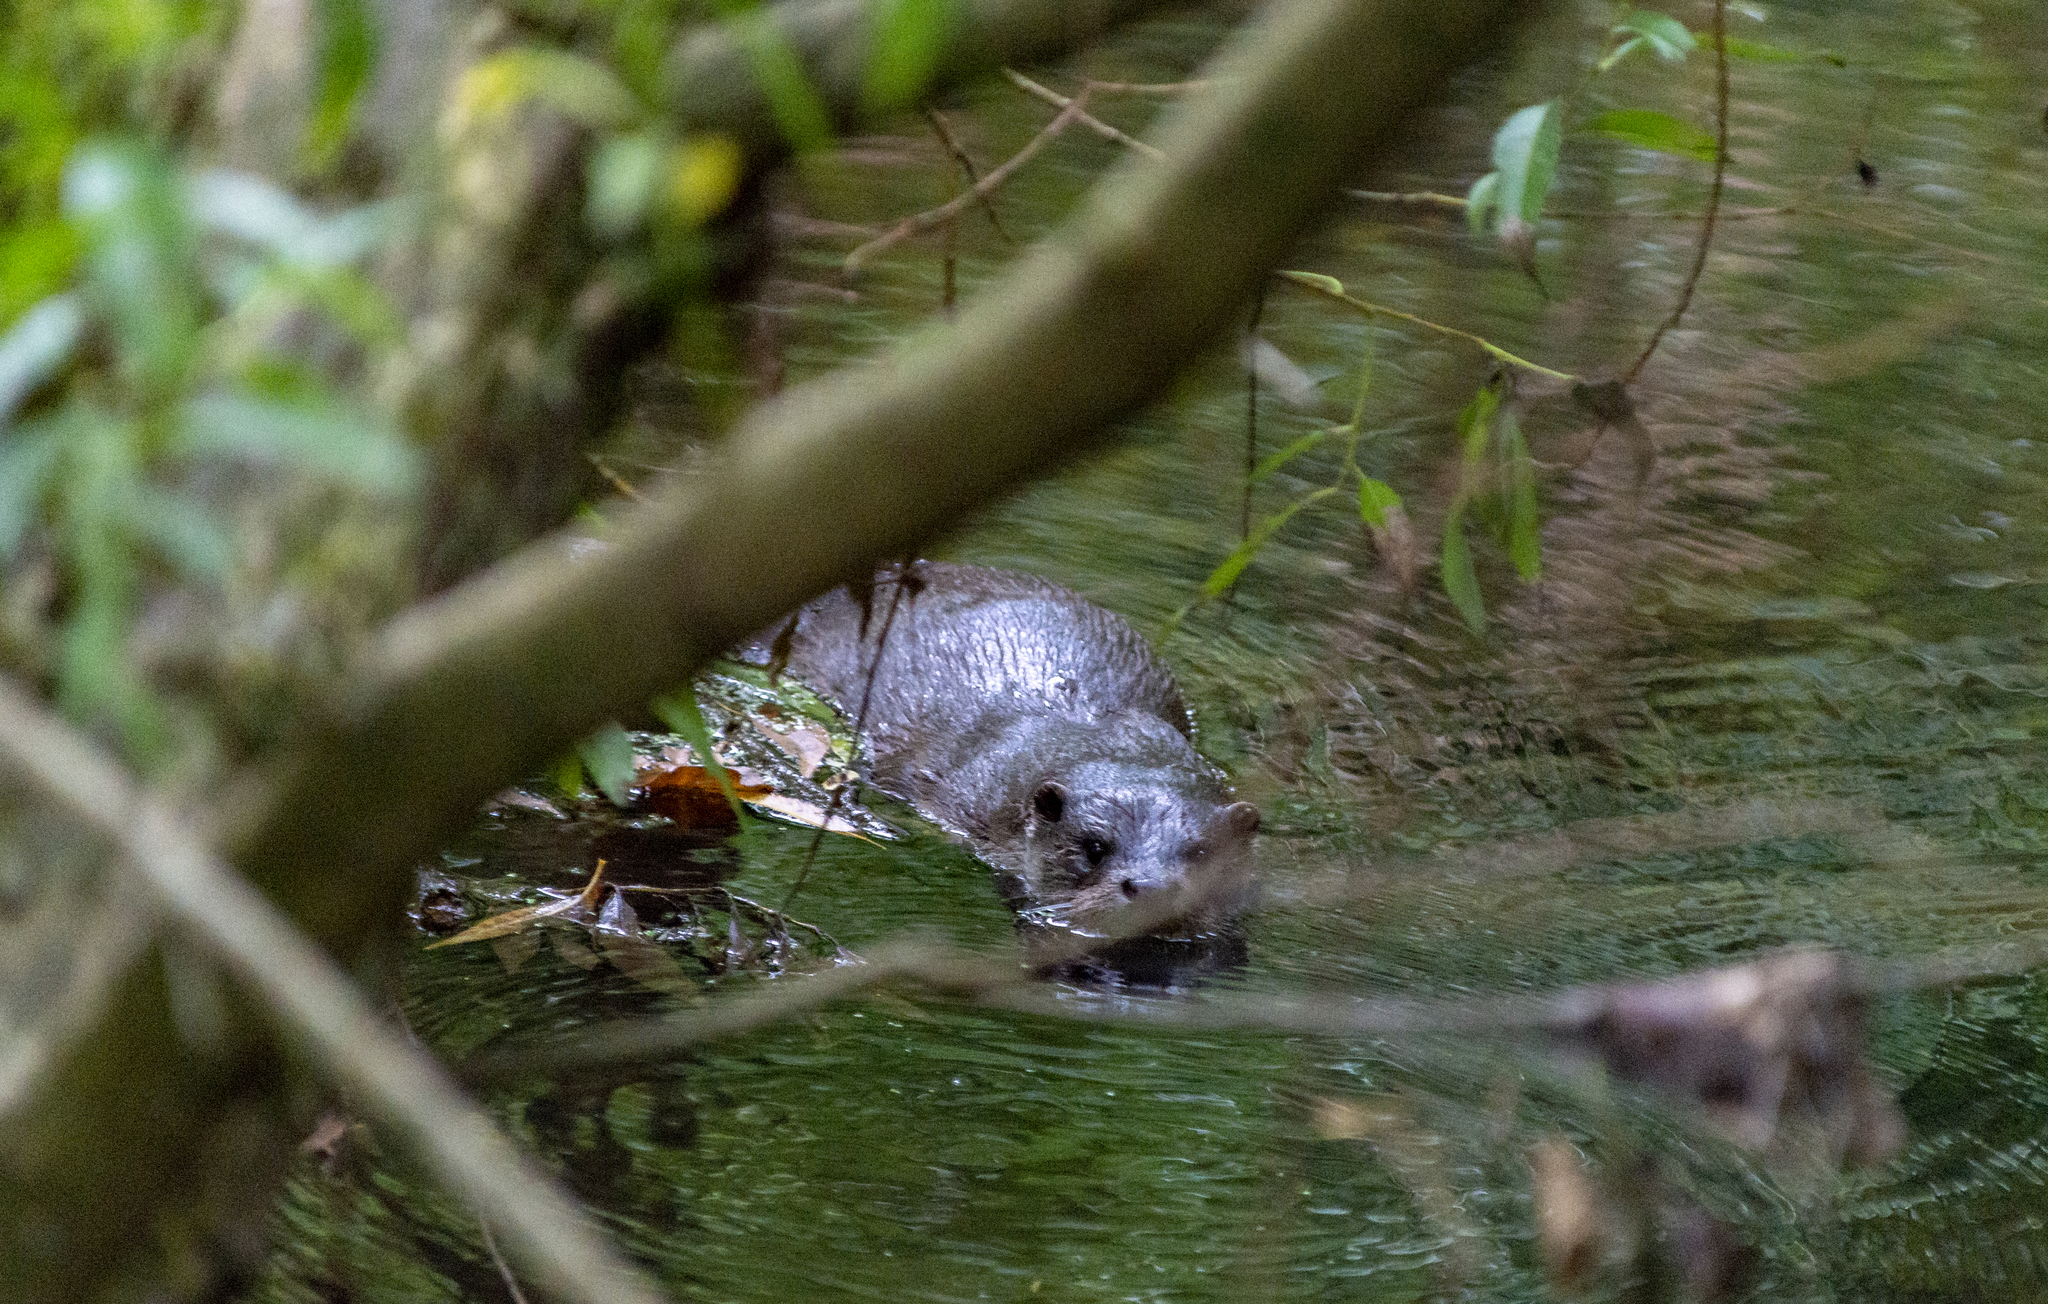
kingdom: Animalia
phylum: Chordata
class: Mammalia
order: Carnivora
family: Mustelidae
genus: Lutra
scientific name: Lutra lutra
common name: European otter
